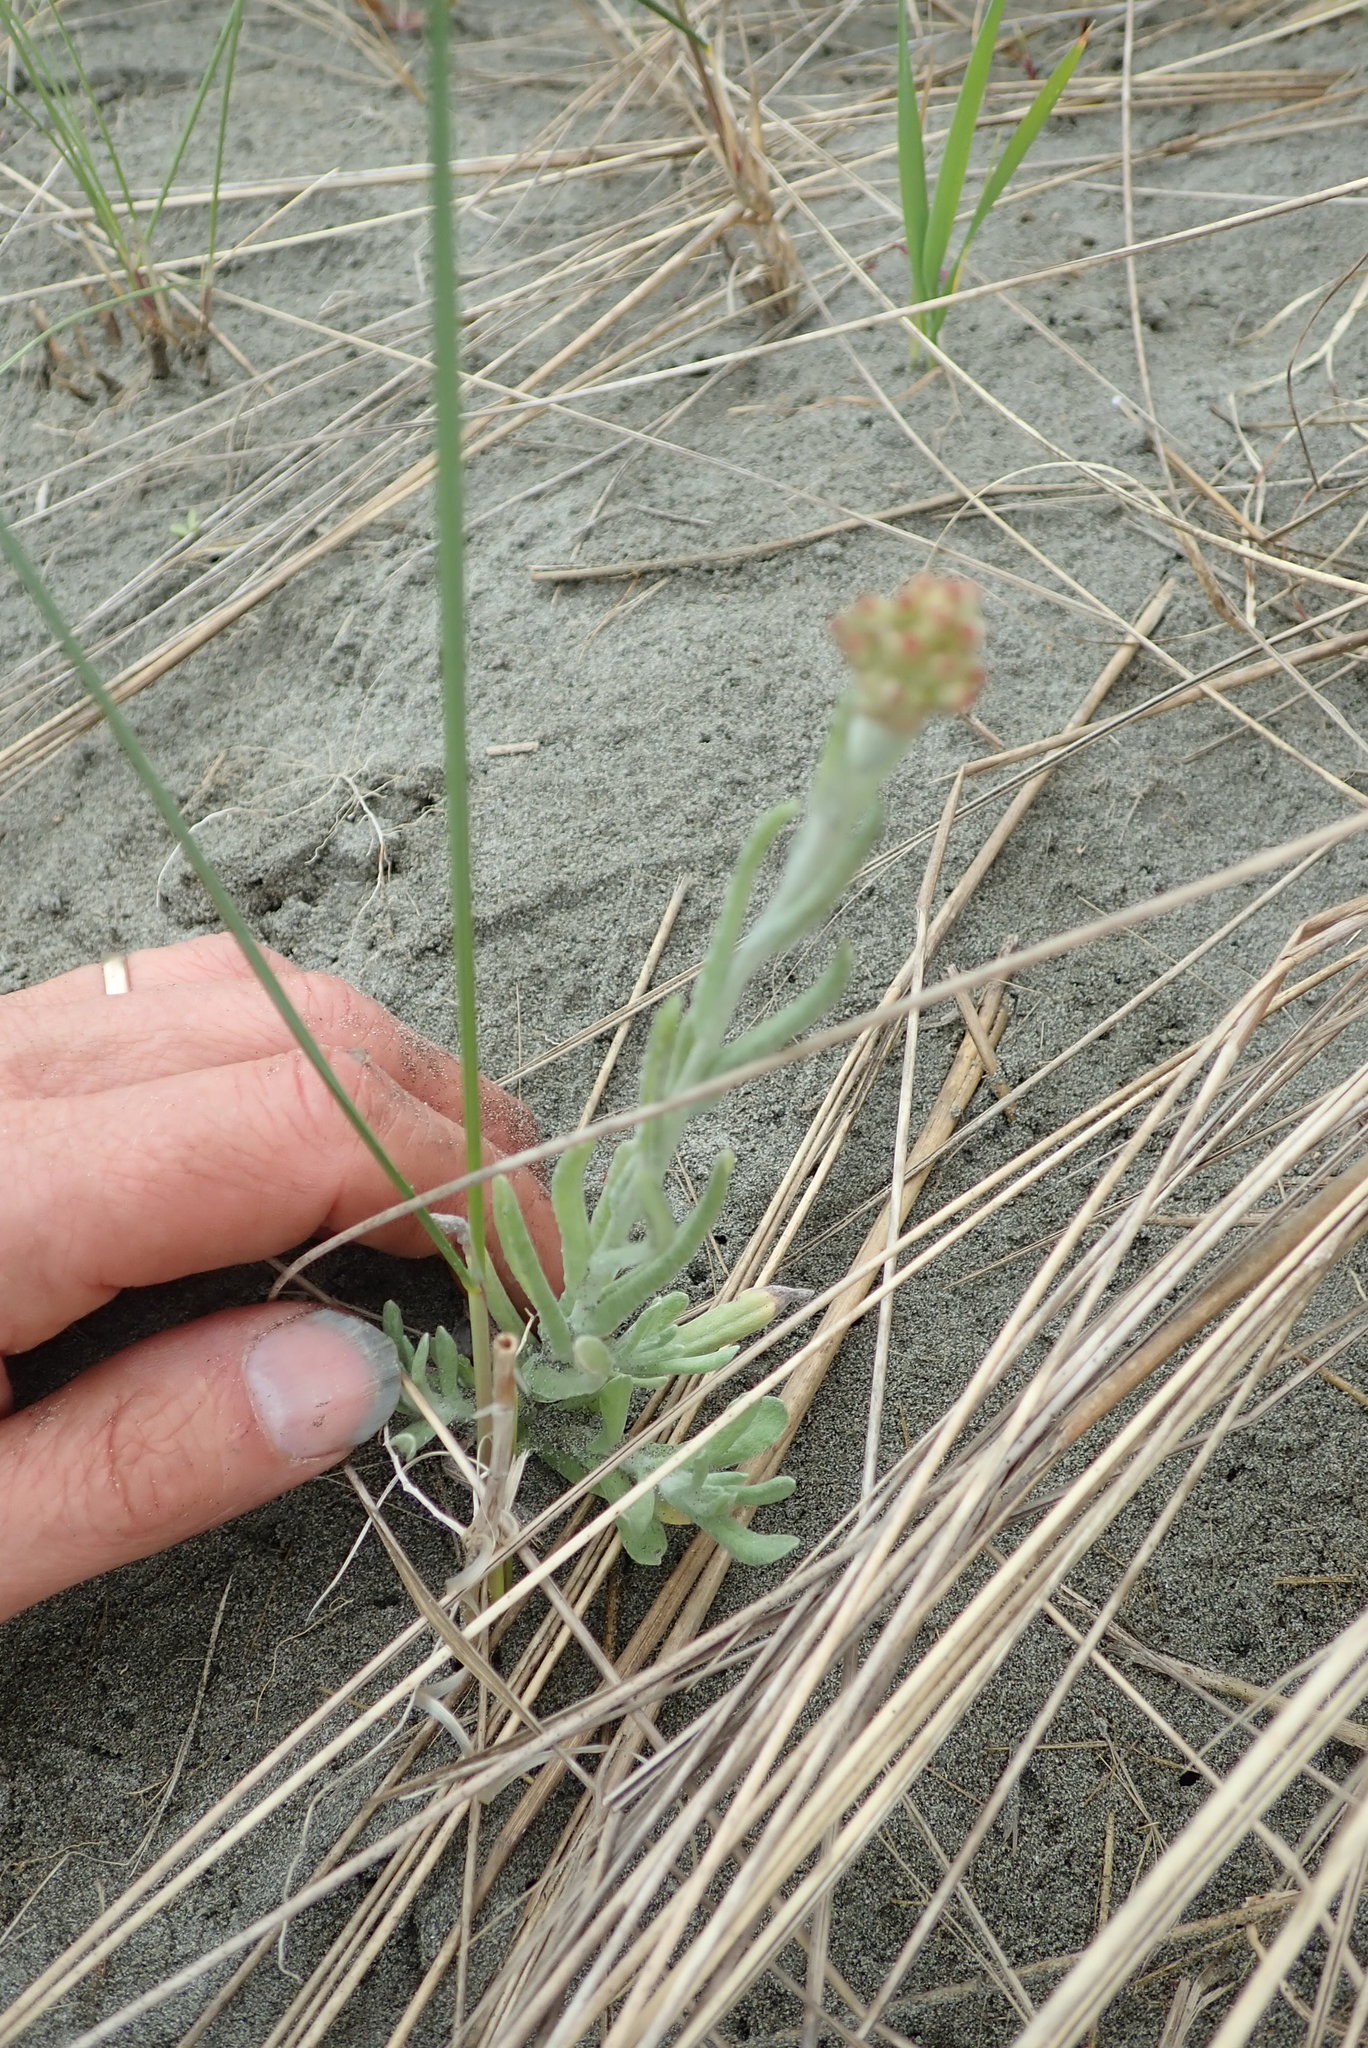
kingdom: Plantae
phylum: Tracheophyta
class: Magnoliopsida
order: Asterales
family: Asteraceae
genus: Helichrysum
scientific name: Helichrysum luteoalbum
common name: Daisy
